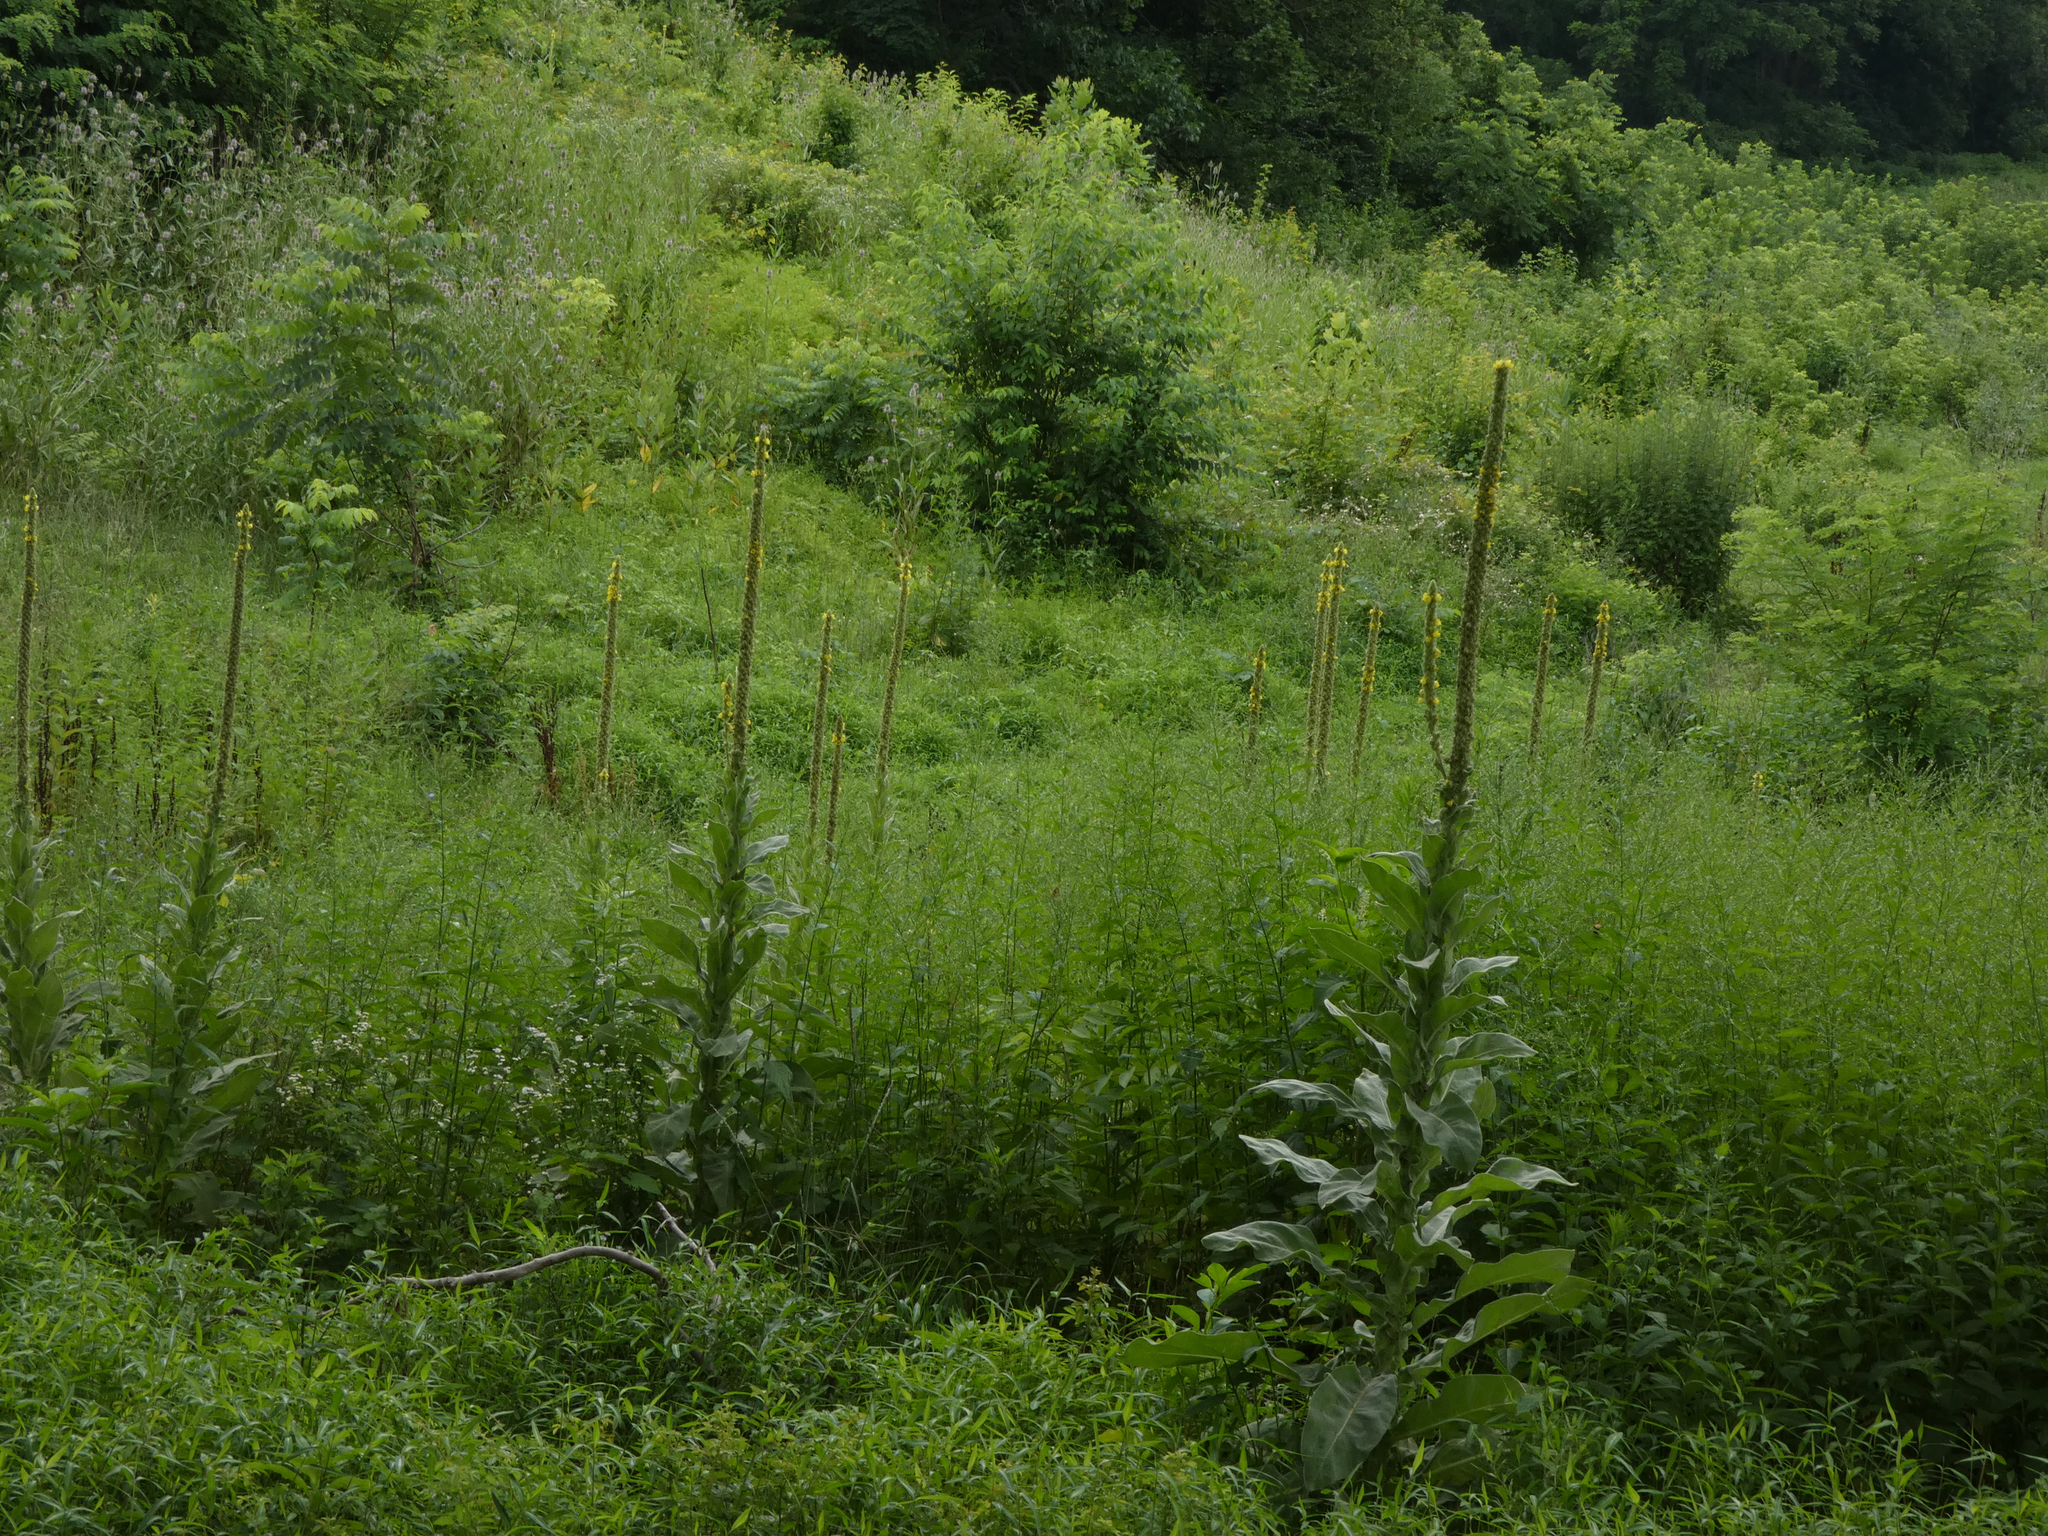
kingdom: Plantae
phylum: Tracheophyta
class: Magnoliopsida
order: Lamiales
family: Scrophulariaceae
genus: Verbascum
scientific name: Verbascum thapsus
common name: Common mullein
